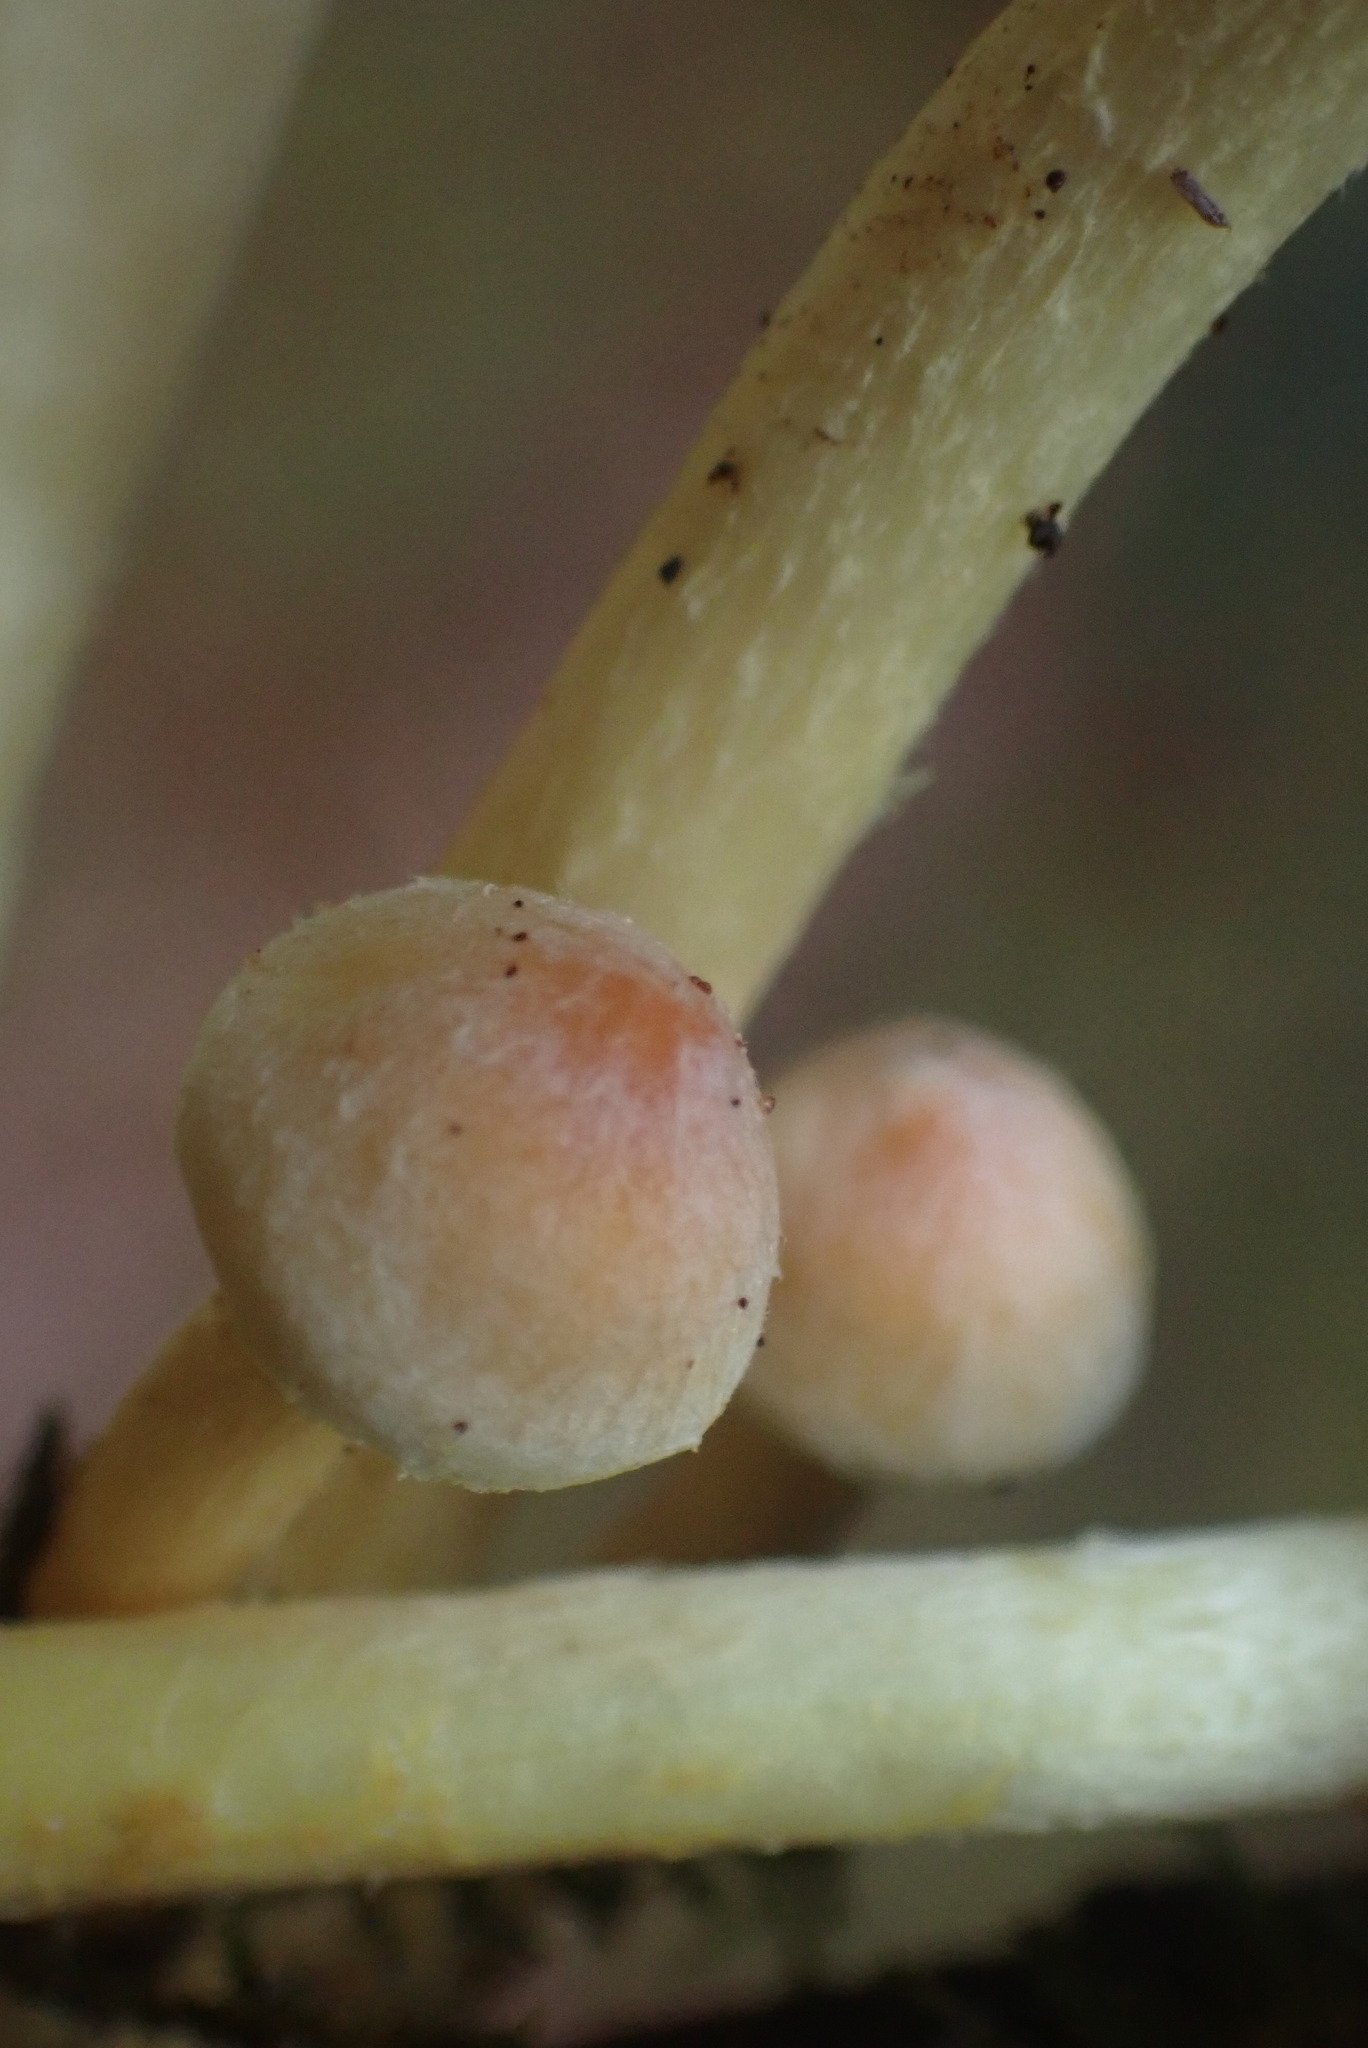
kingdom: Fungi
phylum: Basidiomycota
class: Agaricomycetes
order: Agaricales
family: Strophariaceae
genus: Hypholoma
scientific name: Hypholoma fasciculare
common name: Sulphur tuft
